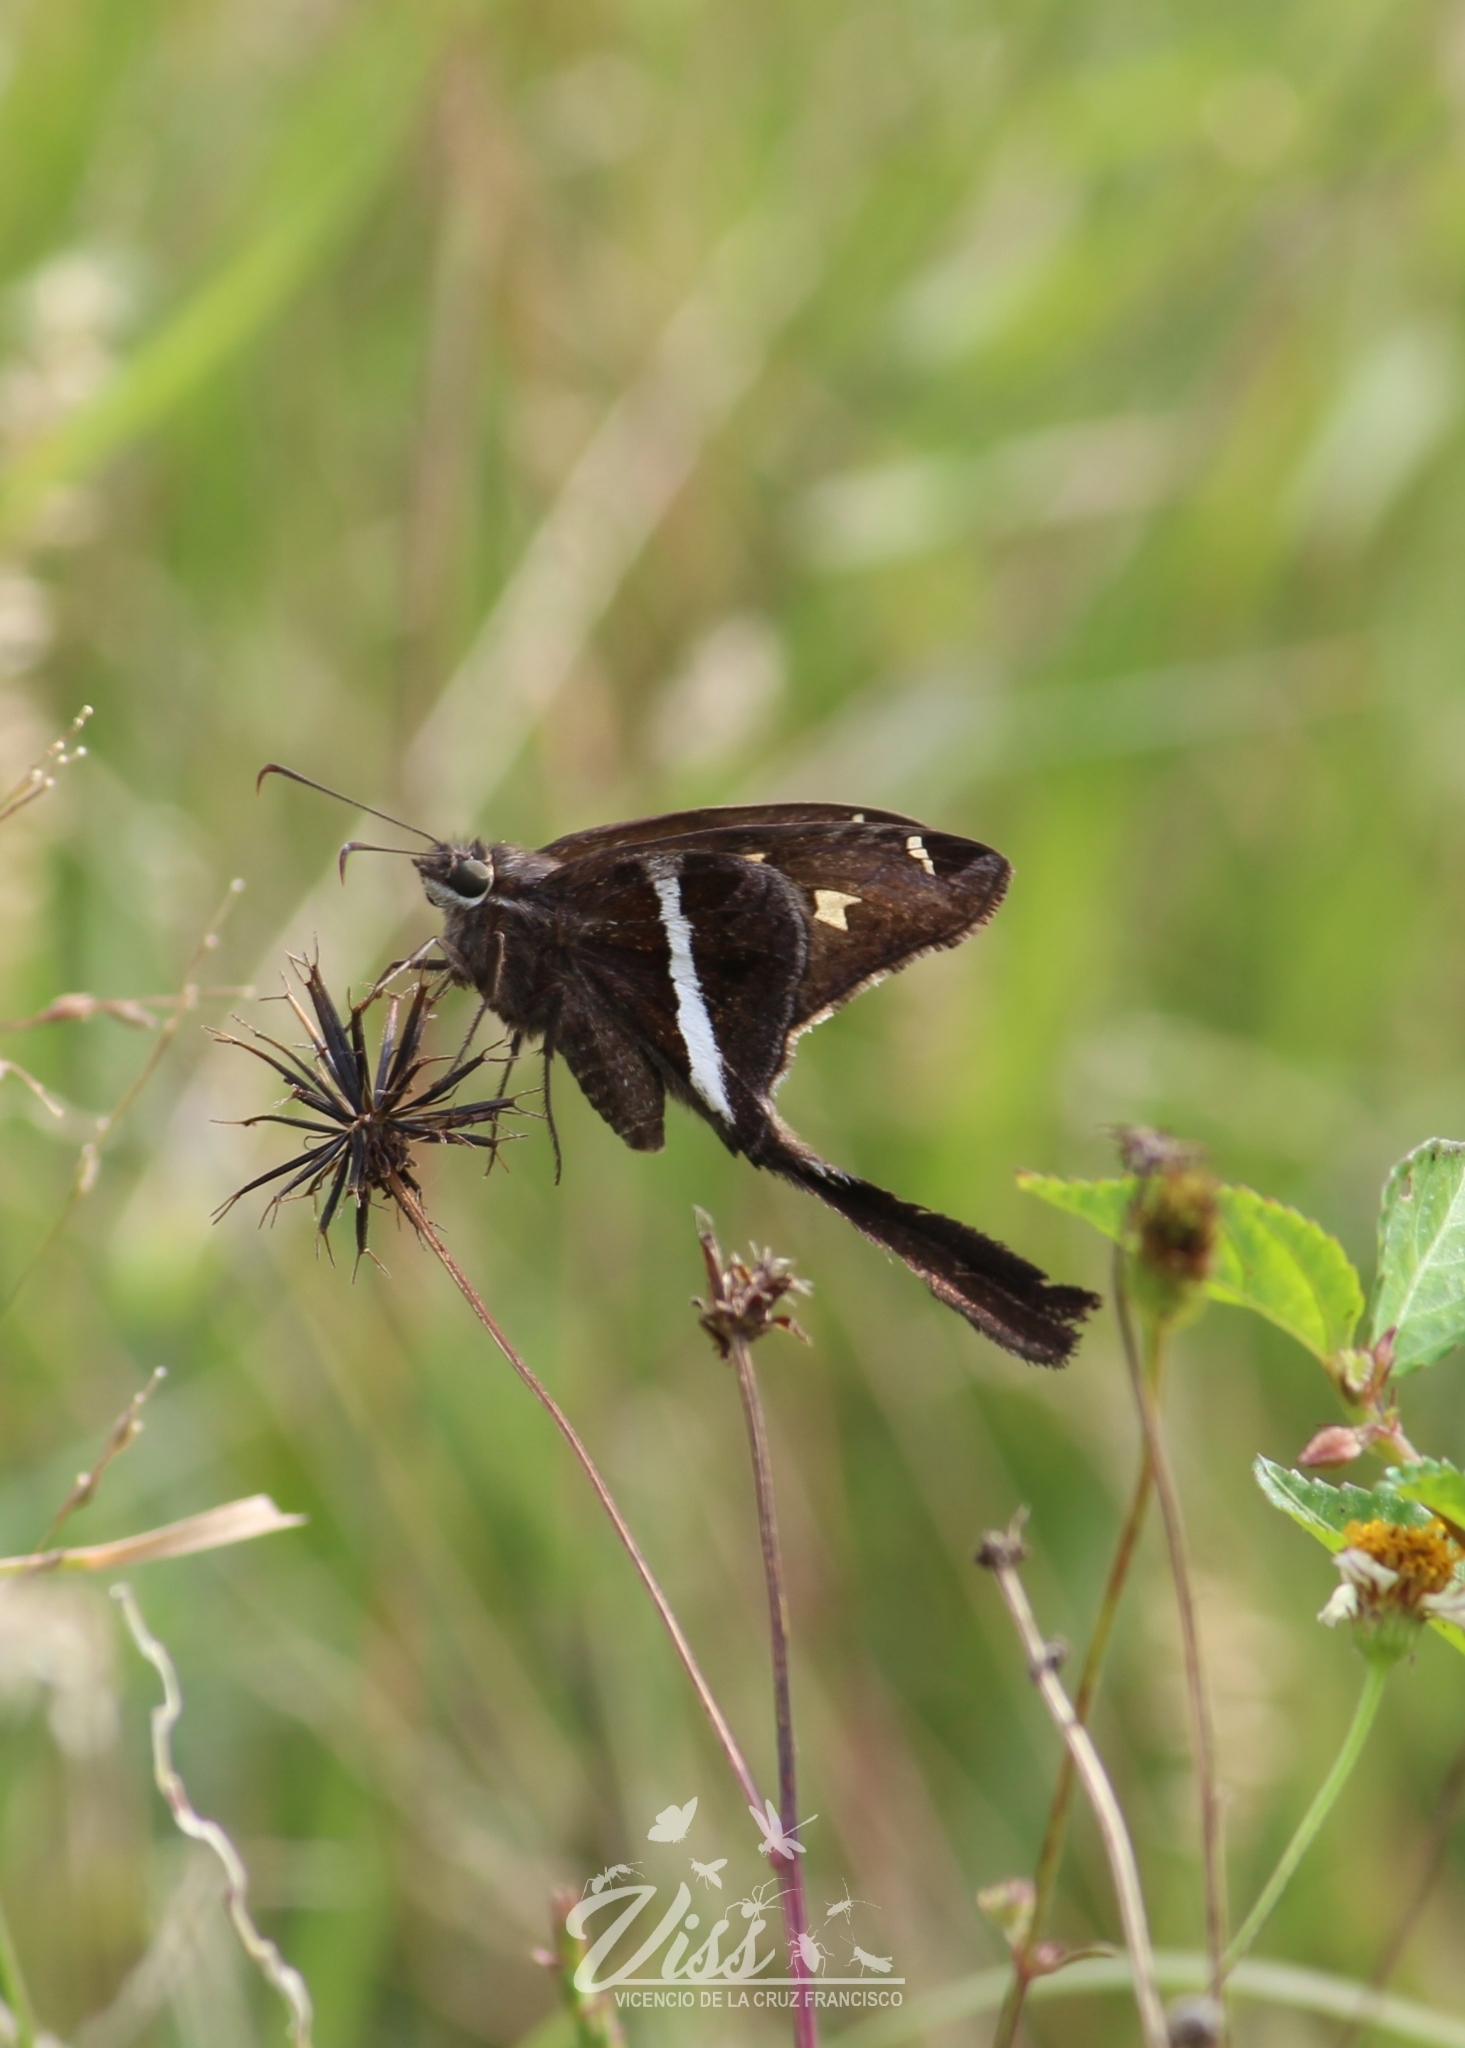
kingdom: Animalia
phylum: Arthropoda
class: Insecta
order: Lepidoptera
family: Hesperiidae
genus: Chioides
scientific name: Chioides catillus
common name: Silverbanded skipper
